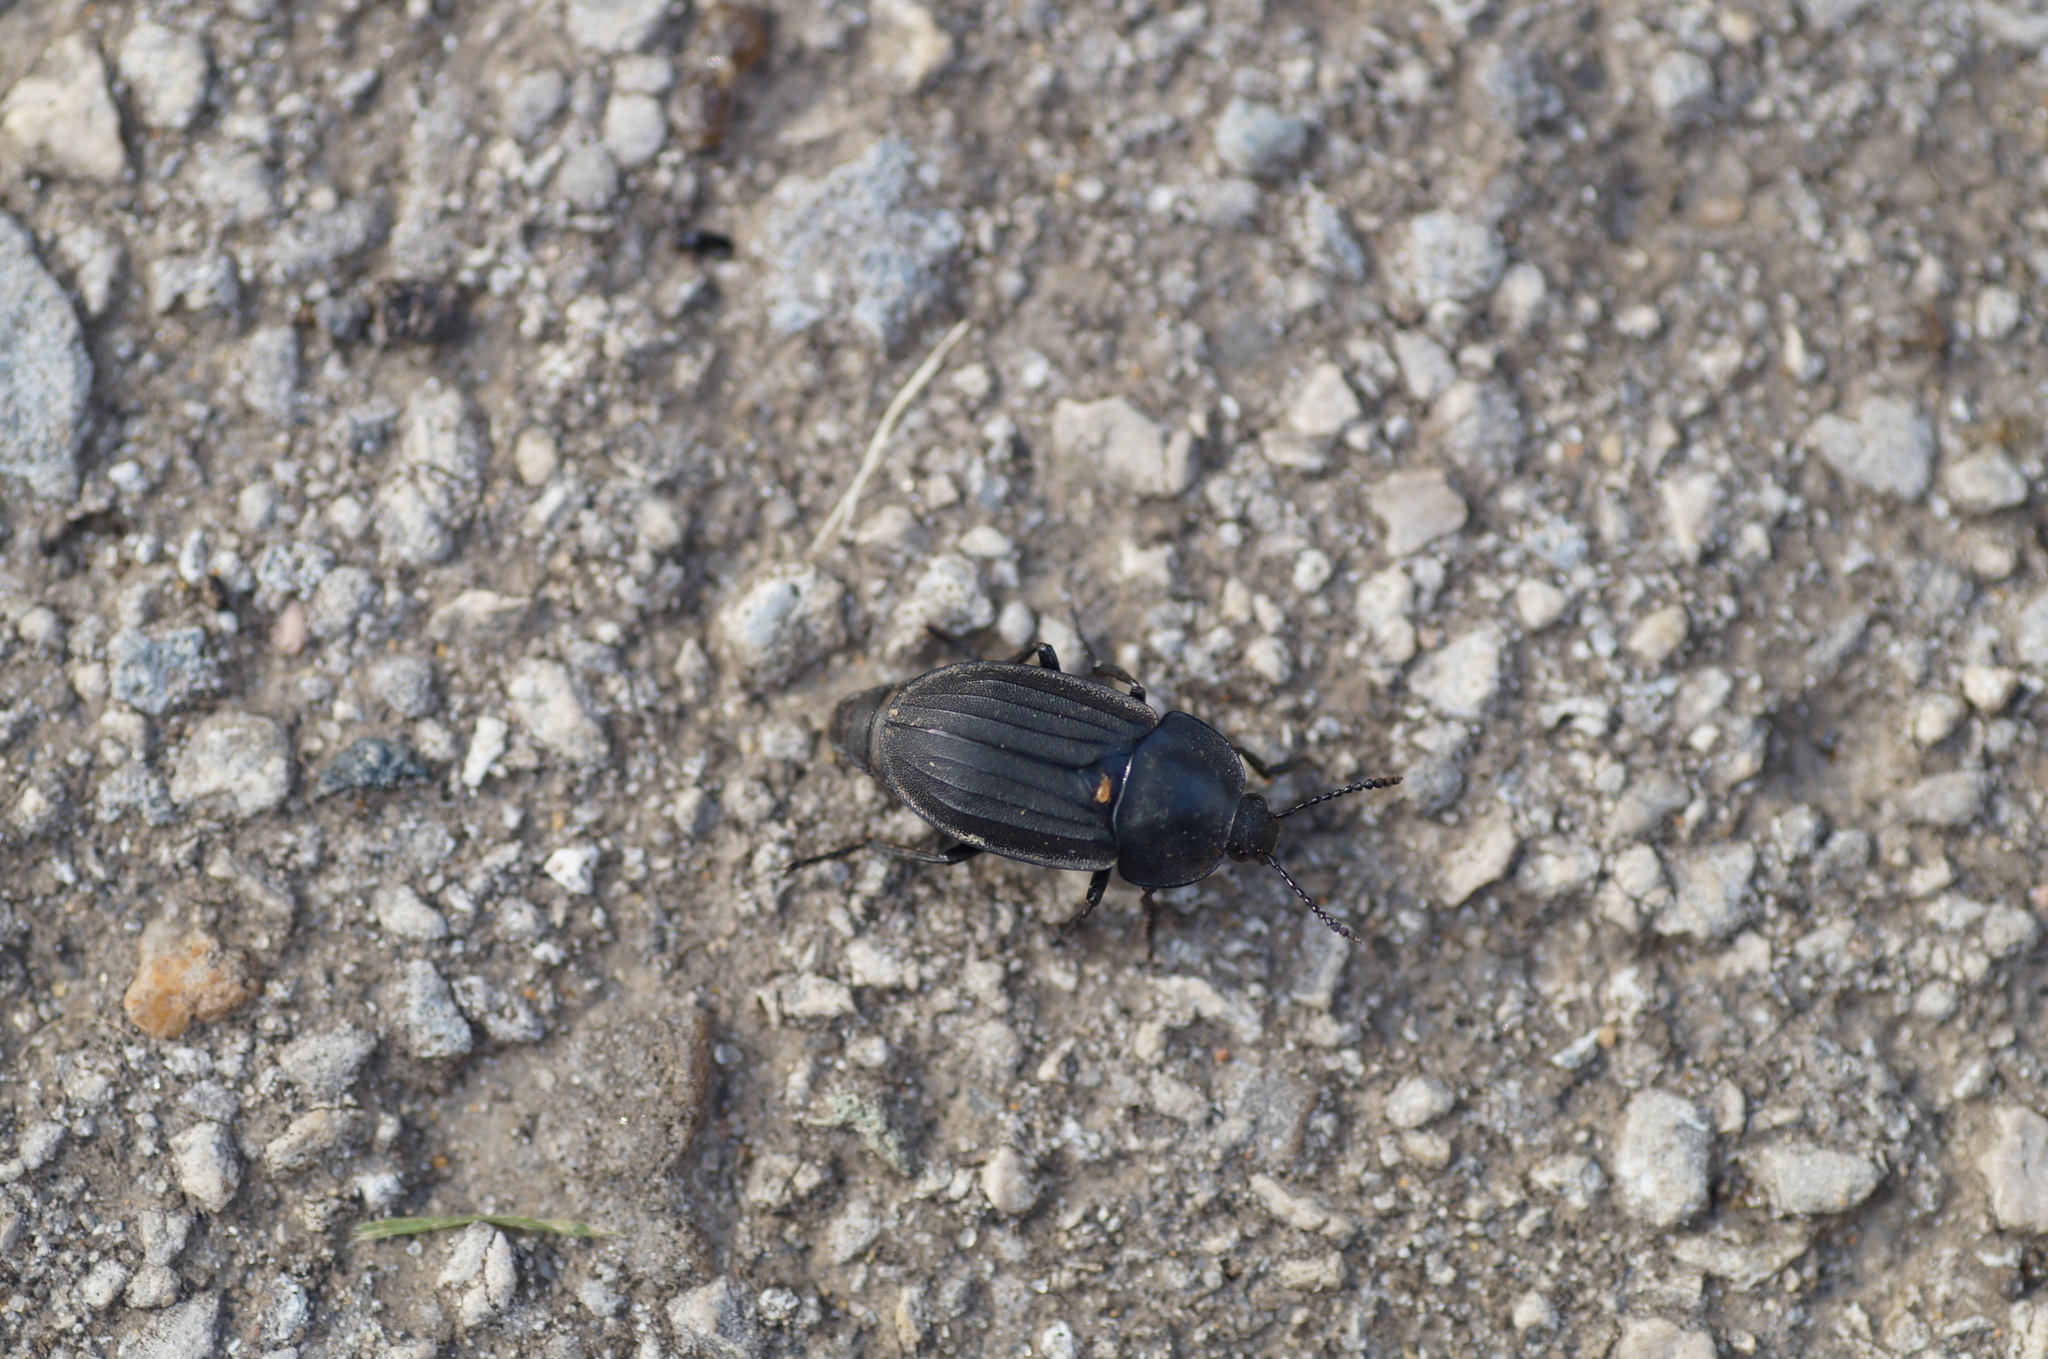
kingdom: Animalia
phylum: Arthropoda
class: Insecta
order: Coleoptera
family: Staphylinidae
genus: Silpha
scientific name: Silpha tristis
